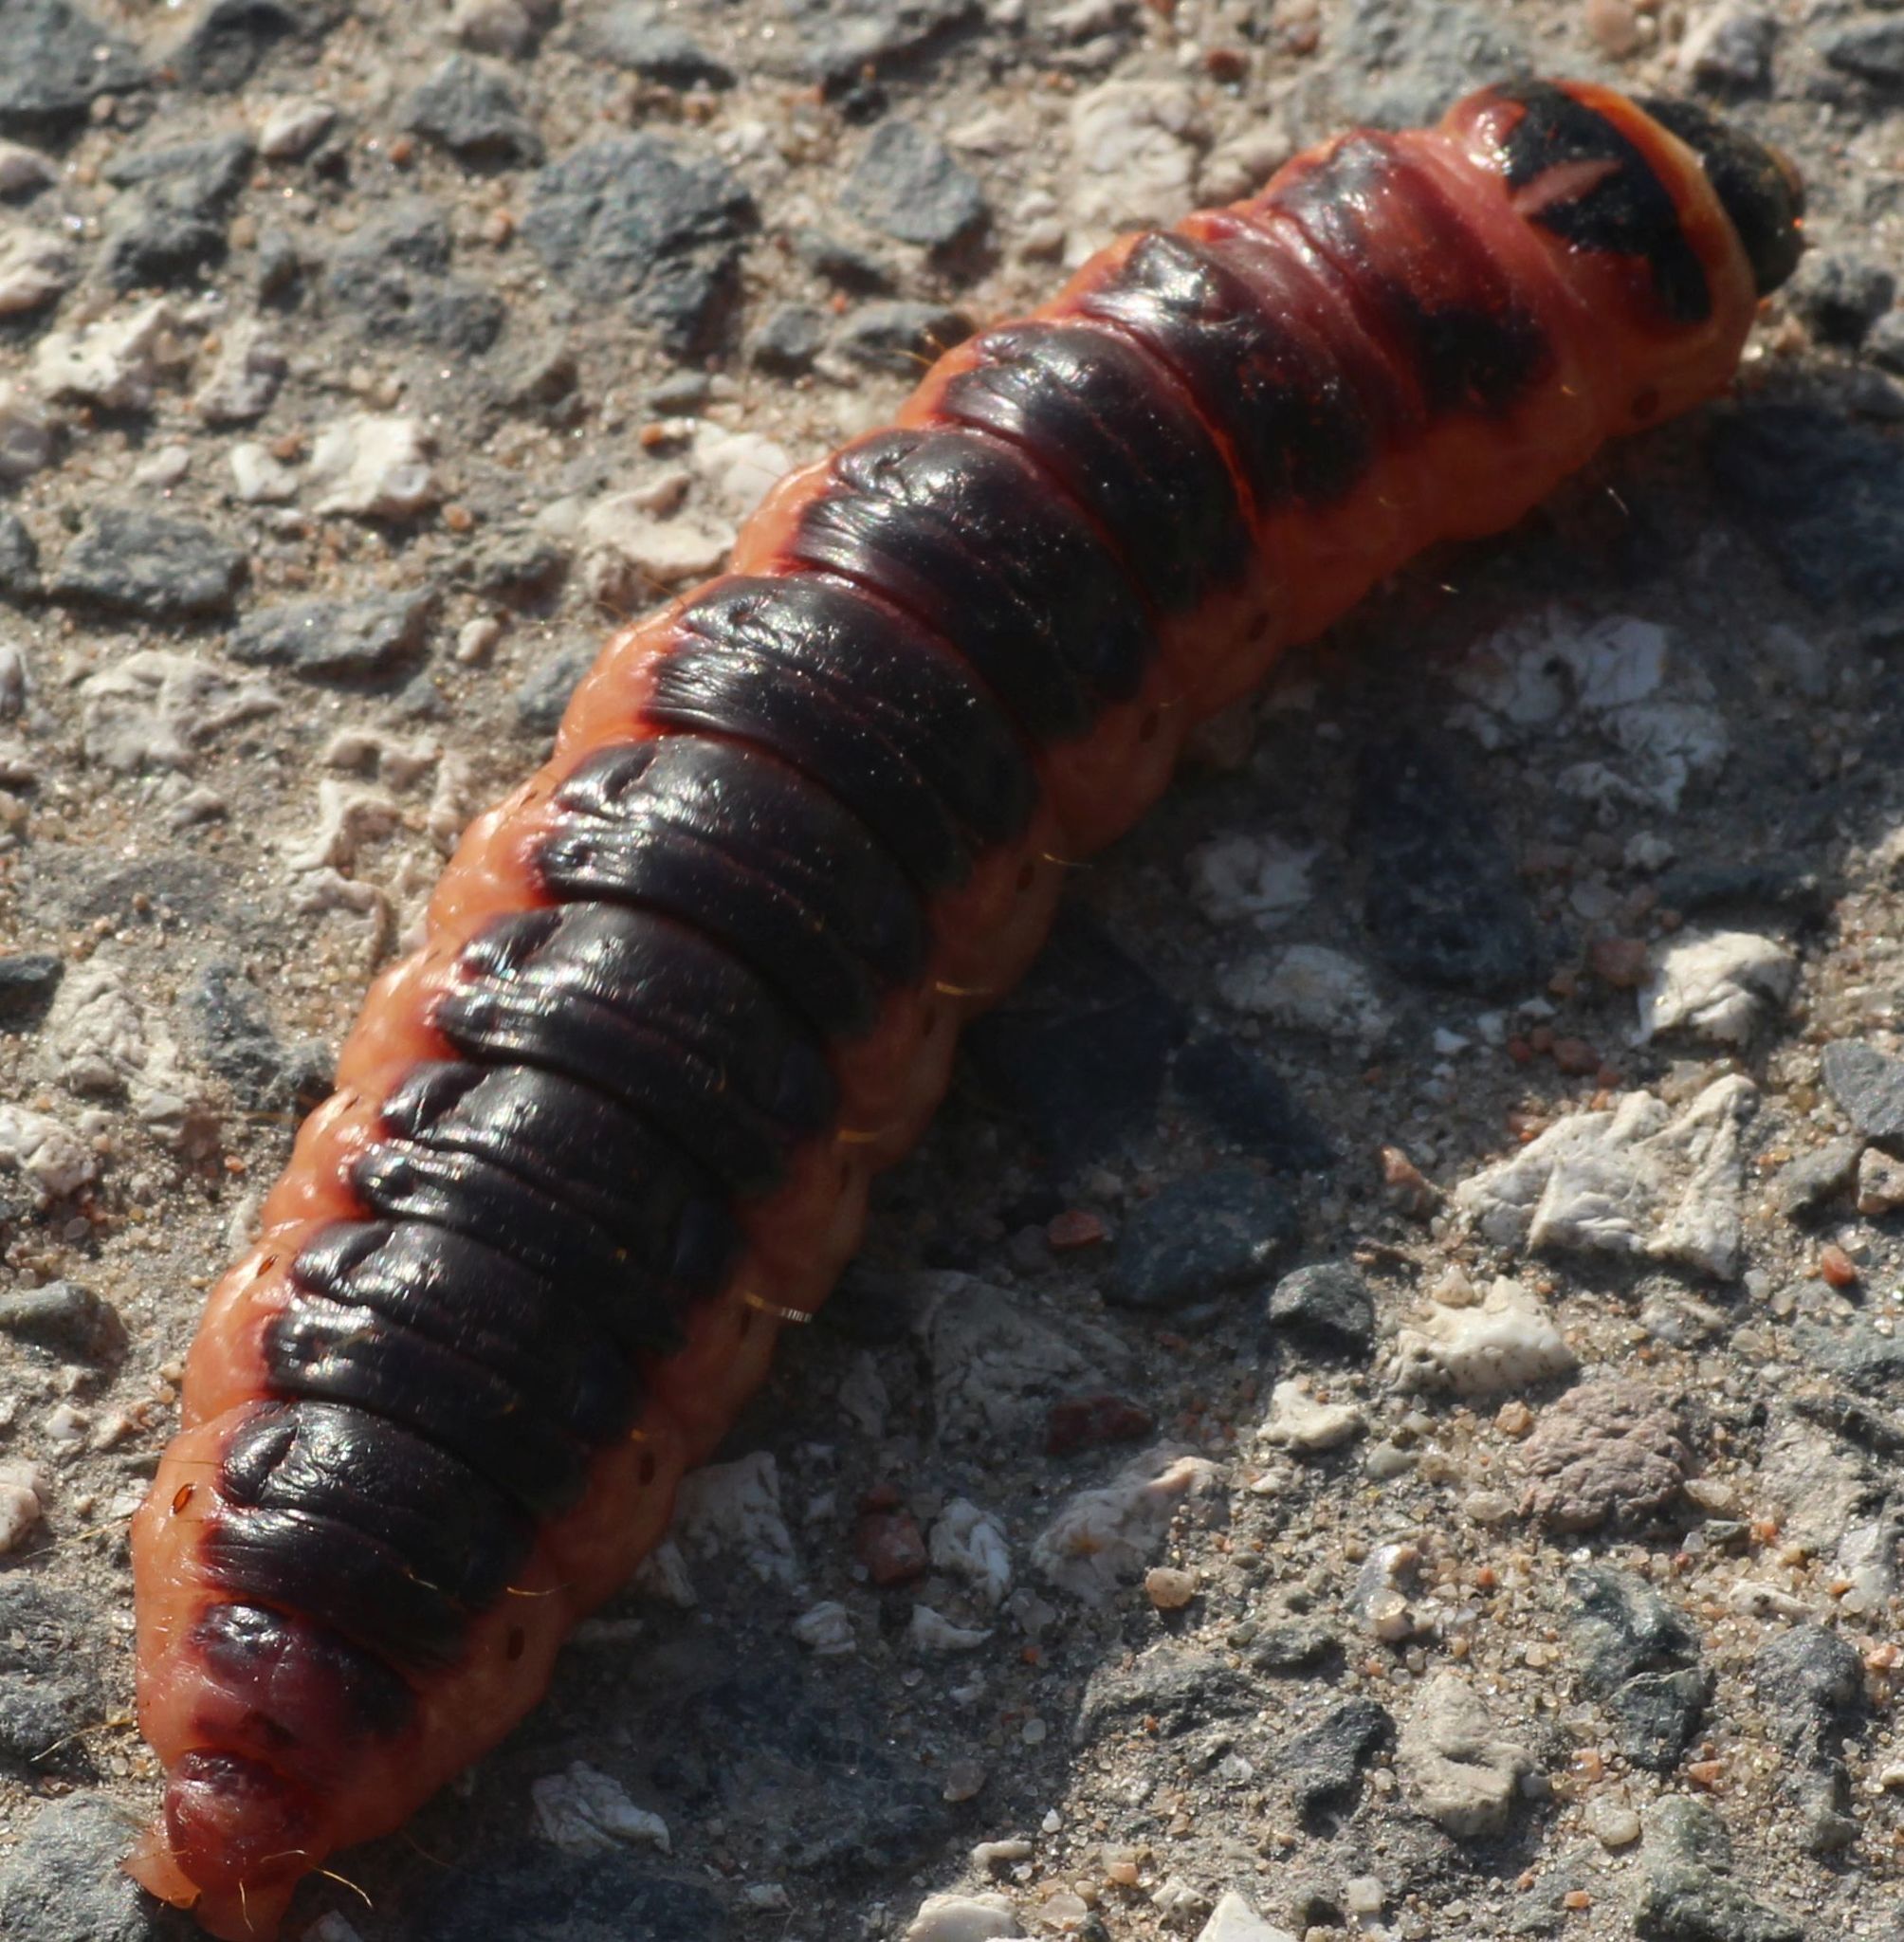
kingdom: Animalia
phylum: Arthropoda
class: Insecta
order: Lepidoptera
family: Cossidae
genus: Cossus
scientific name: Cossus cossus
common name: Goat moth
